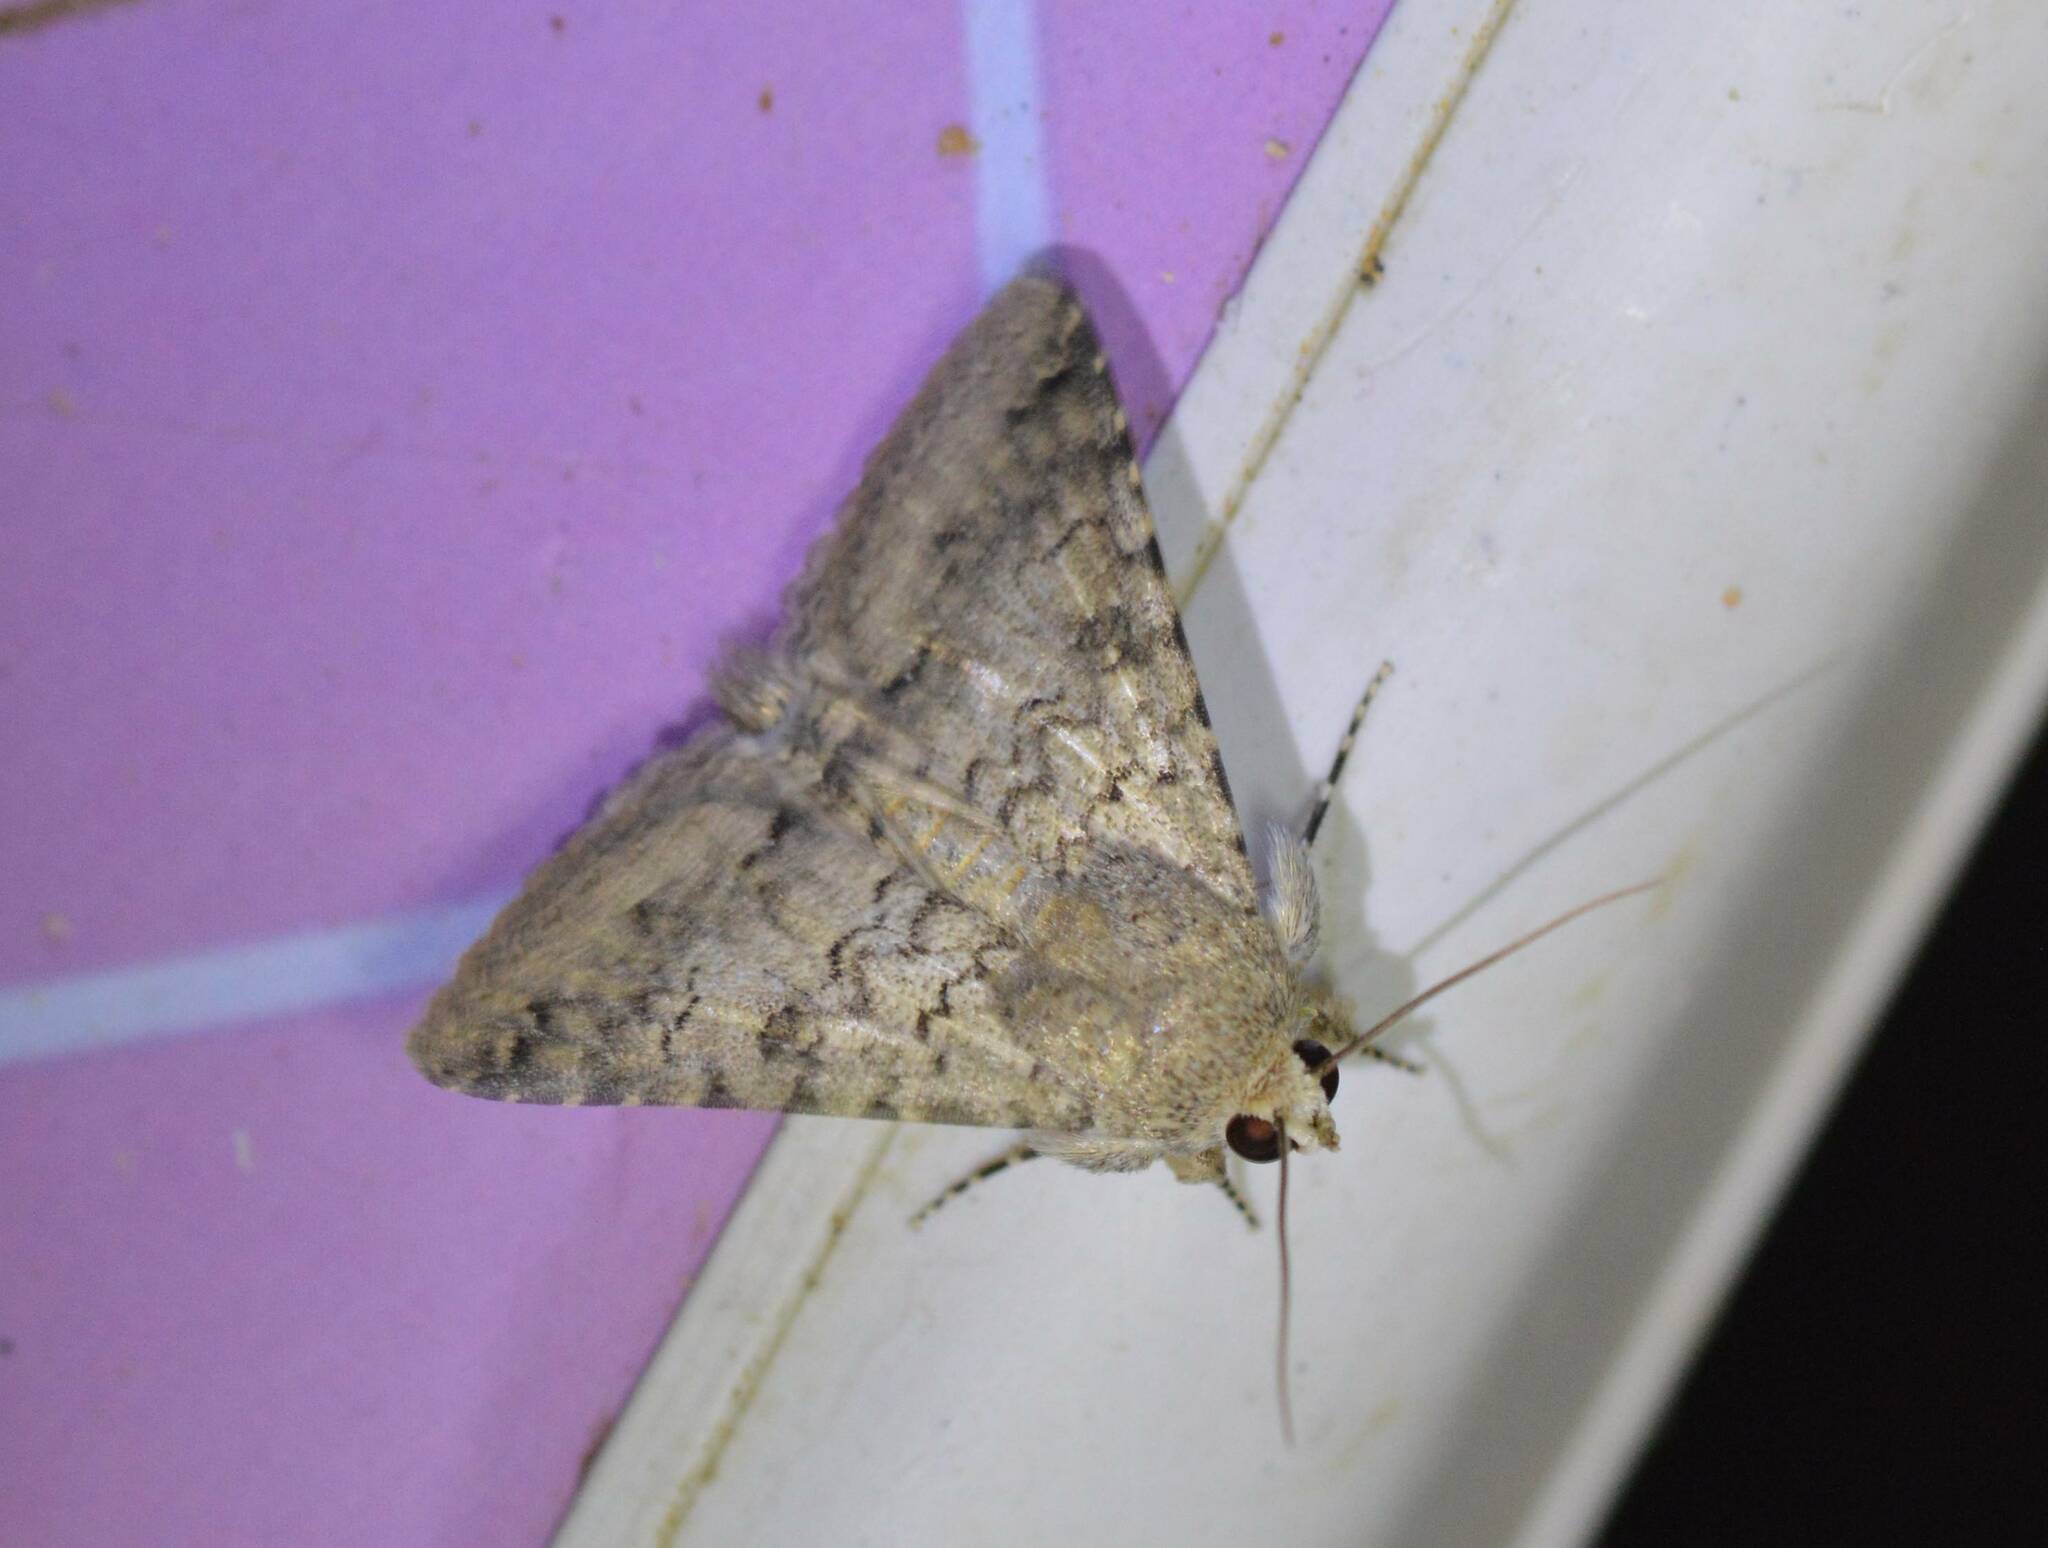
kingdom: Animalia
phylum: Arthropoda
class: Insecta
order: Lepidoptera
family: Erebidae
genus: Pandesma
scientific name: Pandesma robusta
